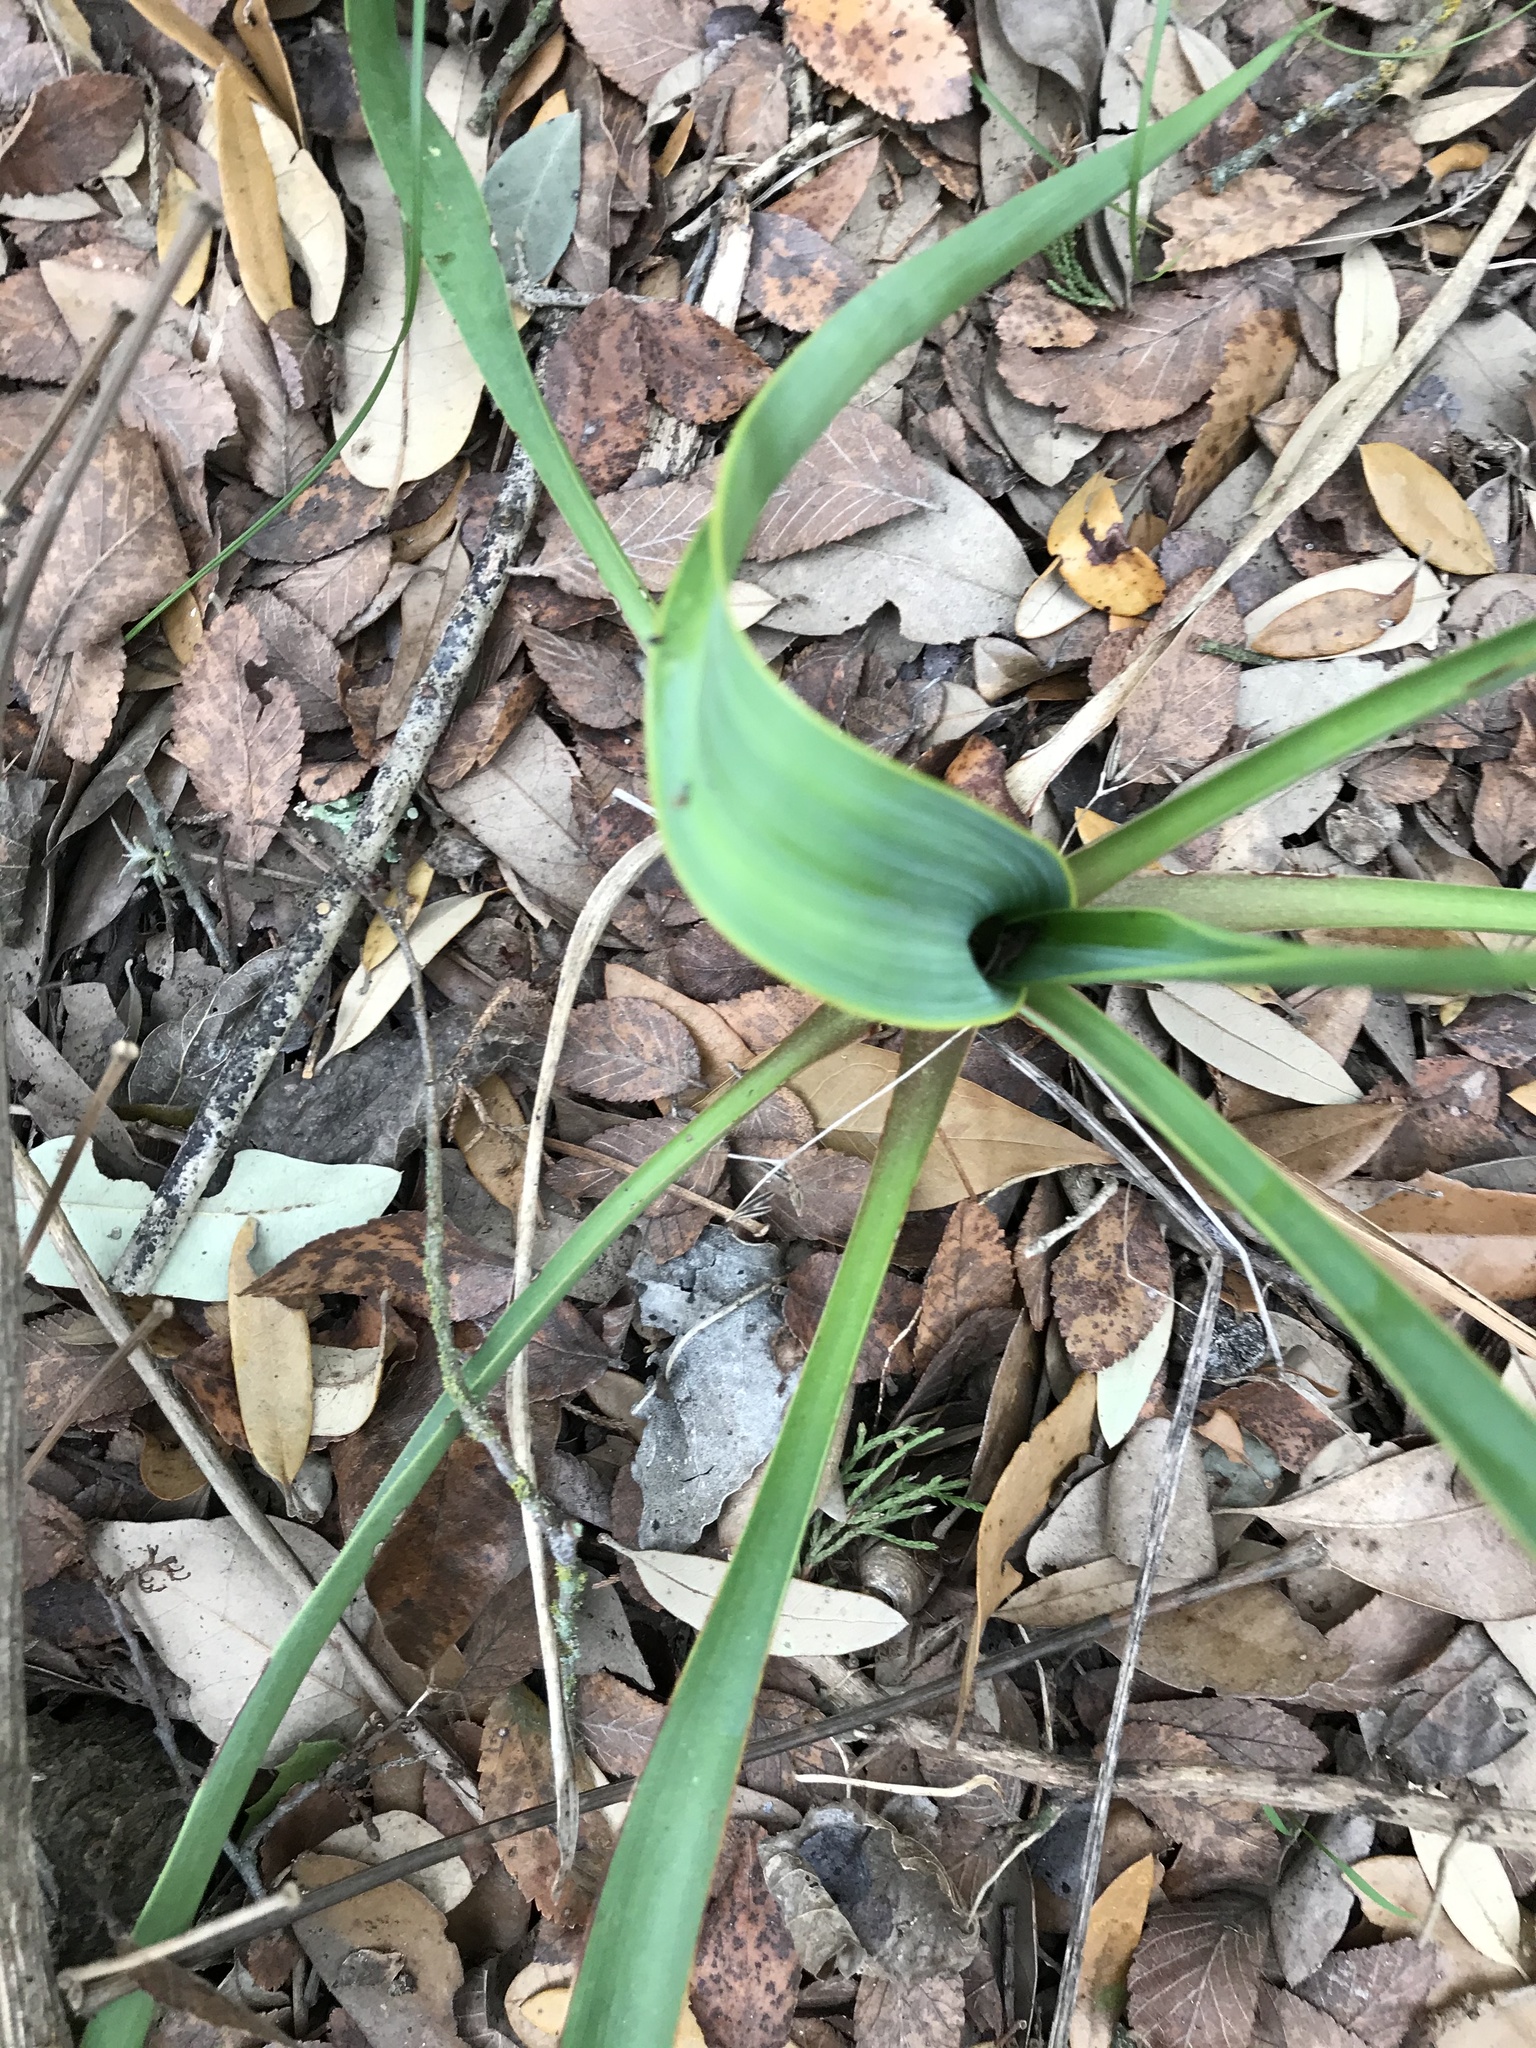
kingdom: Plantae
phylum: Tracheophyta
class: Liliopsida
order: Asparagales
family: Asparagaceae
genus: Yucca
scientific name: Yucca rupicola
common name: Twisted-leaf spanish-dagger
